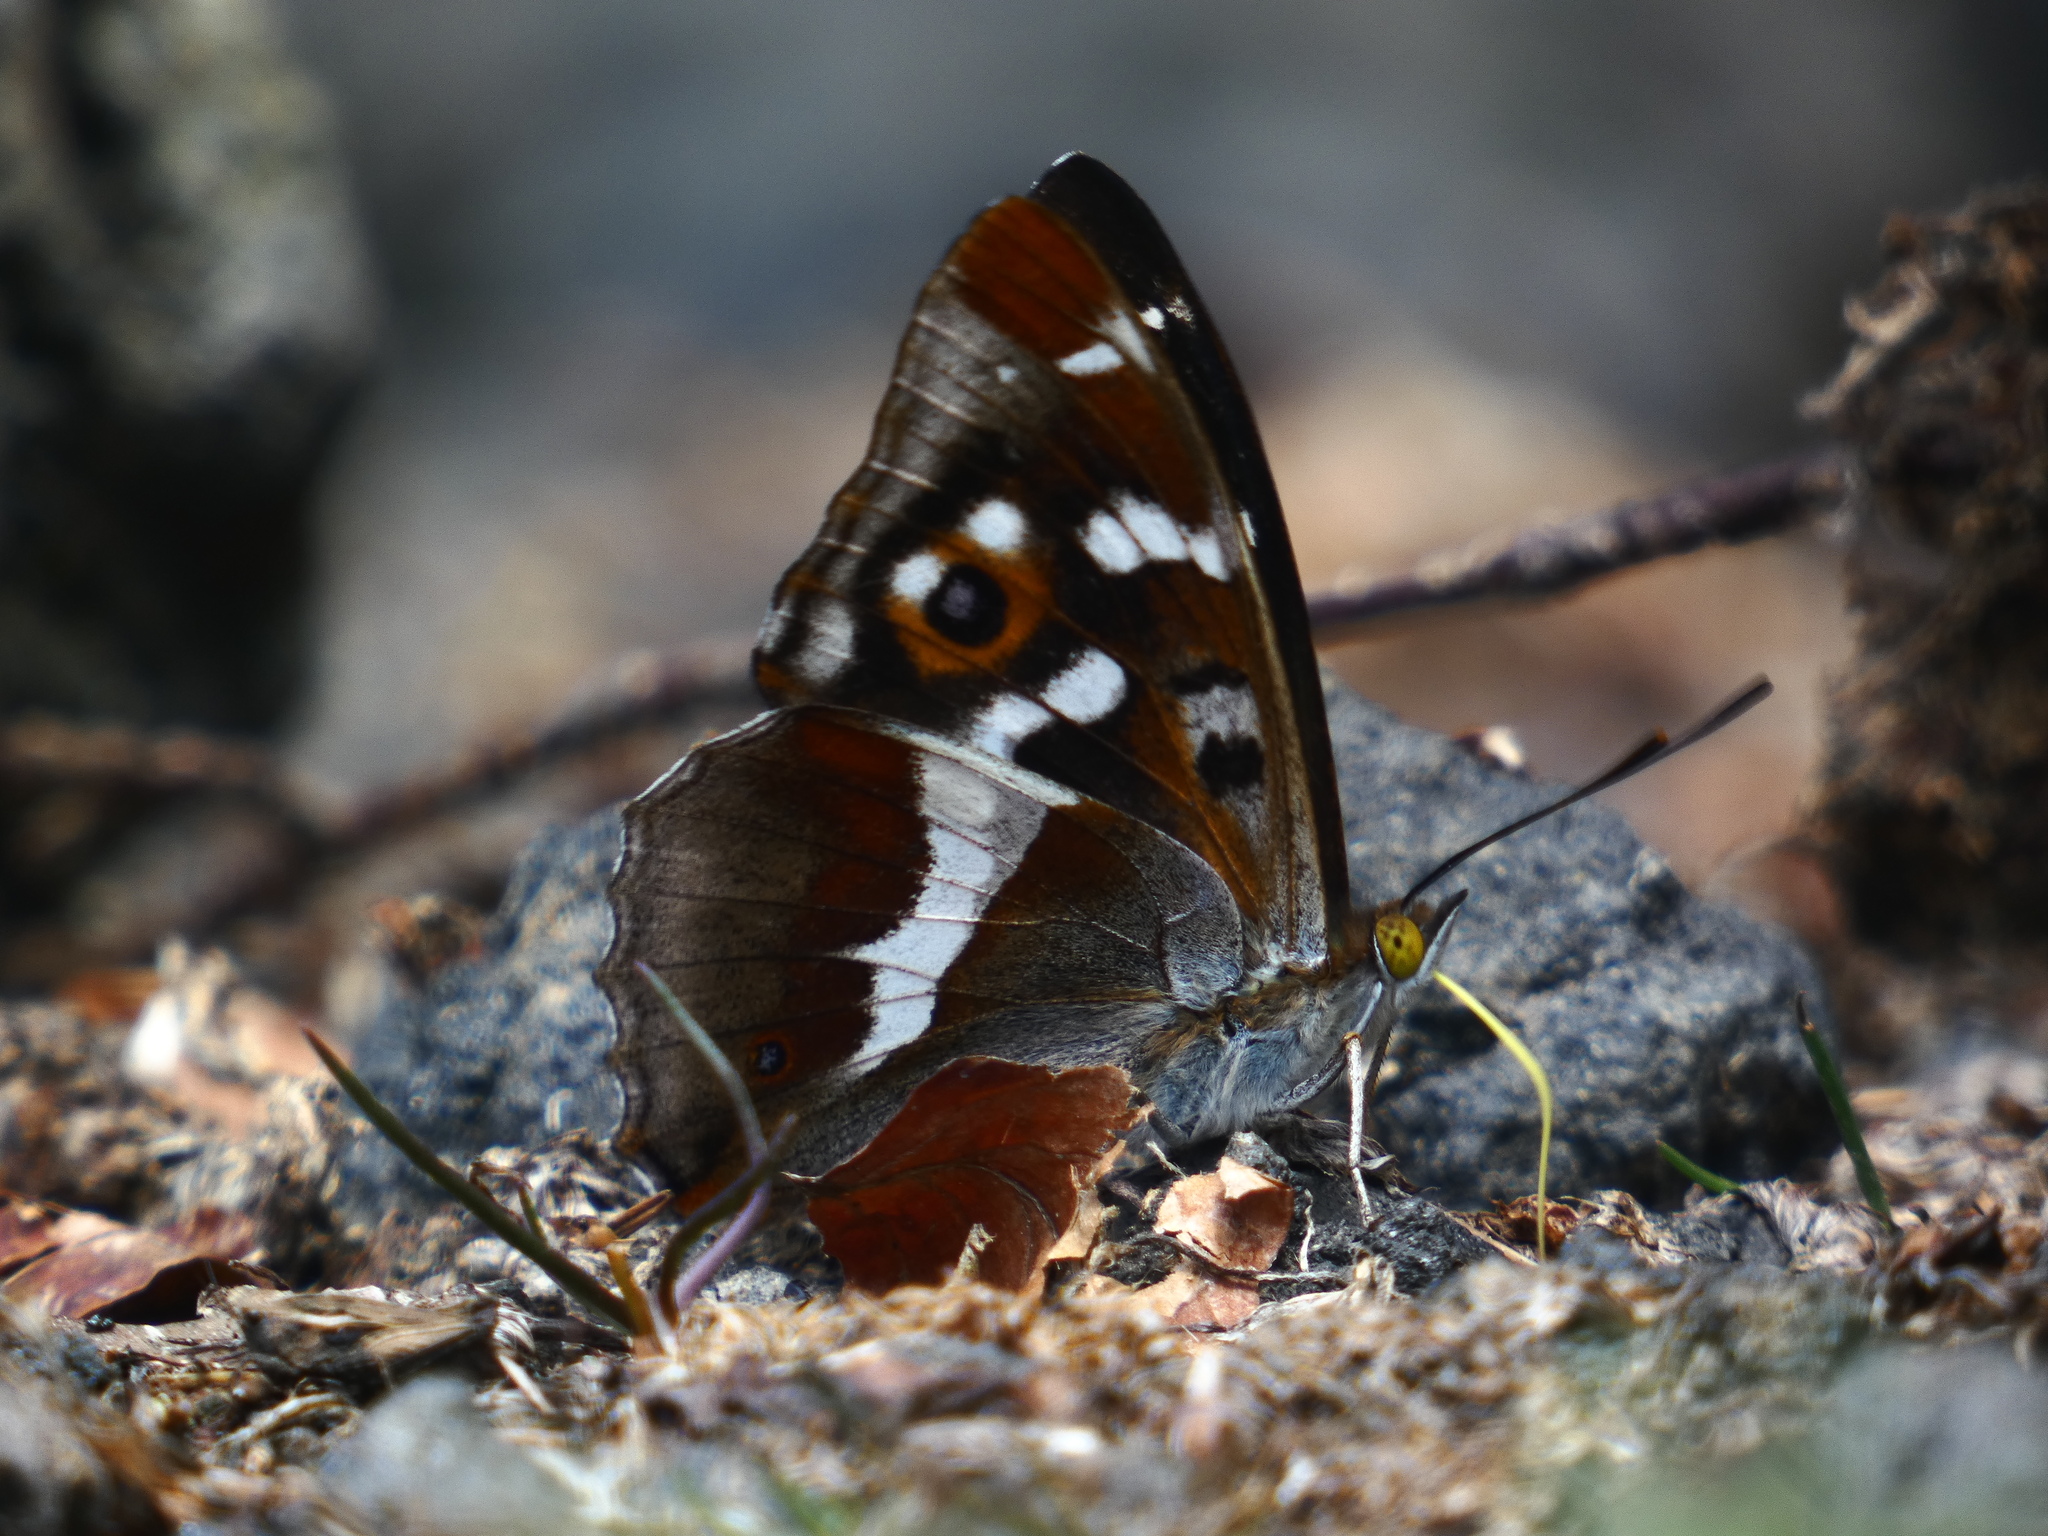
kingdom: Animalia
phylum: Arthropoda
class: Insecta
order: Lepidoptera
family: Nymphalidae
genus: Apatura
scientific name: Apatura iris
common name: Purple emperor
